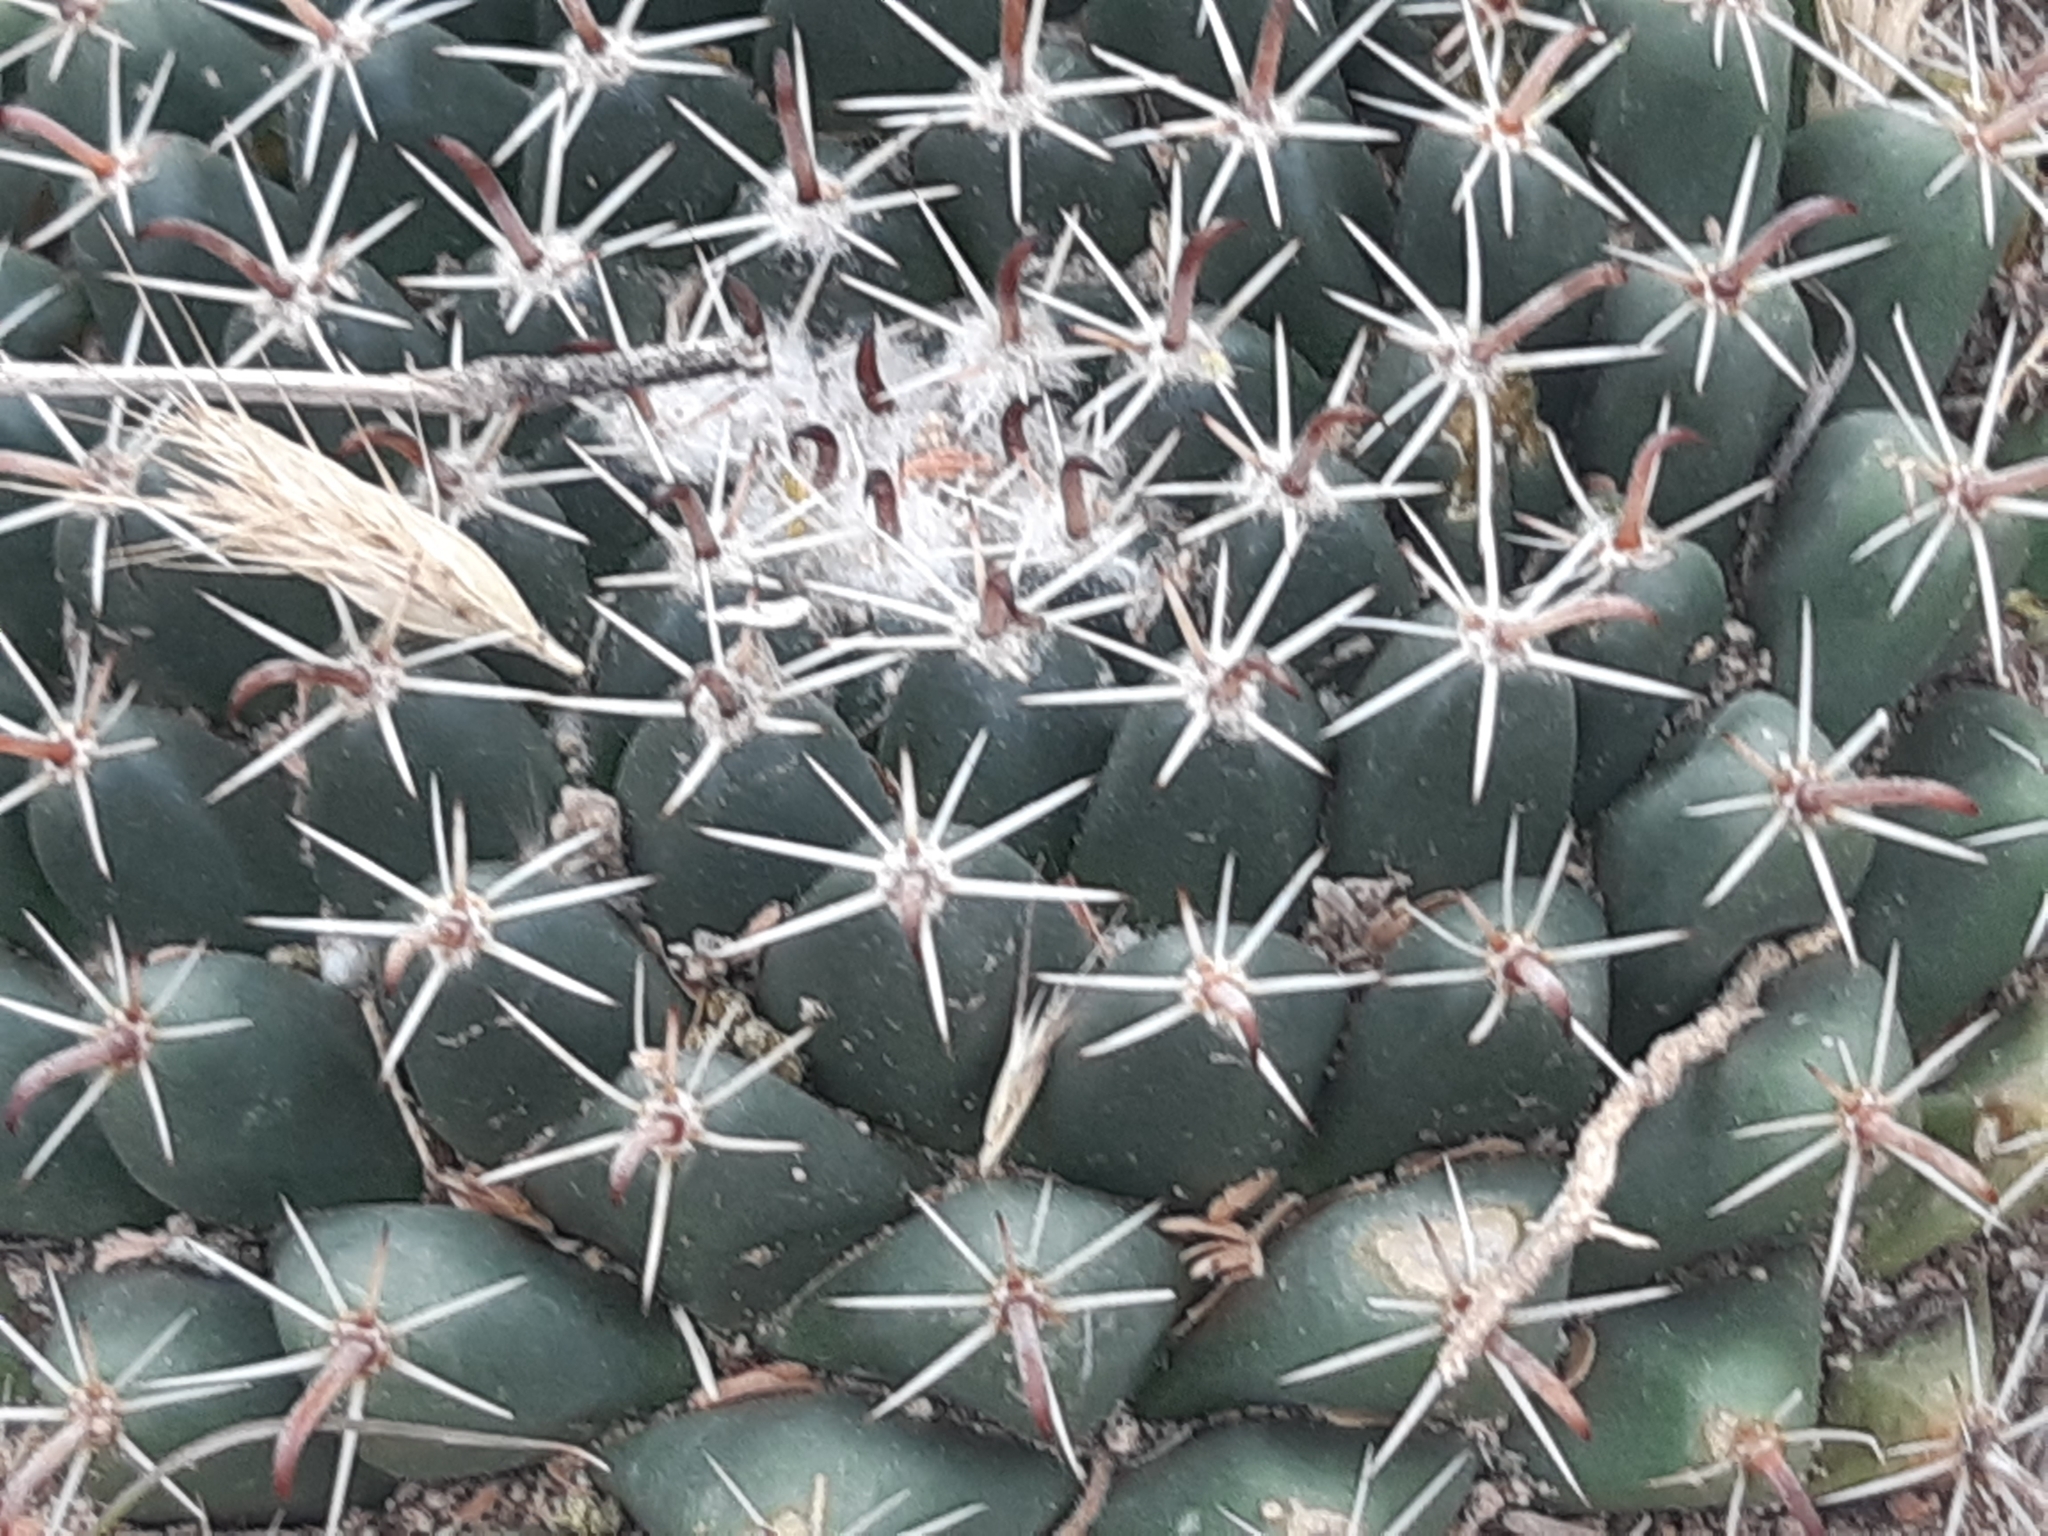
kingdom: Plantae
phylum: Tracheophyta
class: Magnoliopsida
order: Caryophyllales
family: Cactaceae
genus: Mammillaria
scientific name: Mammillaria uncinata
